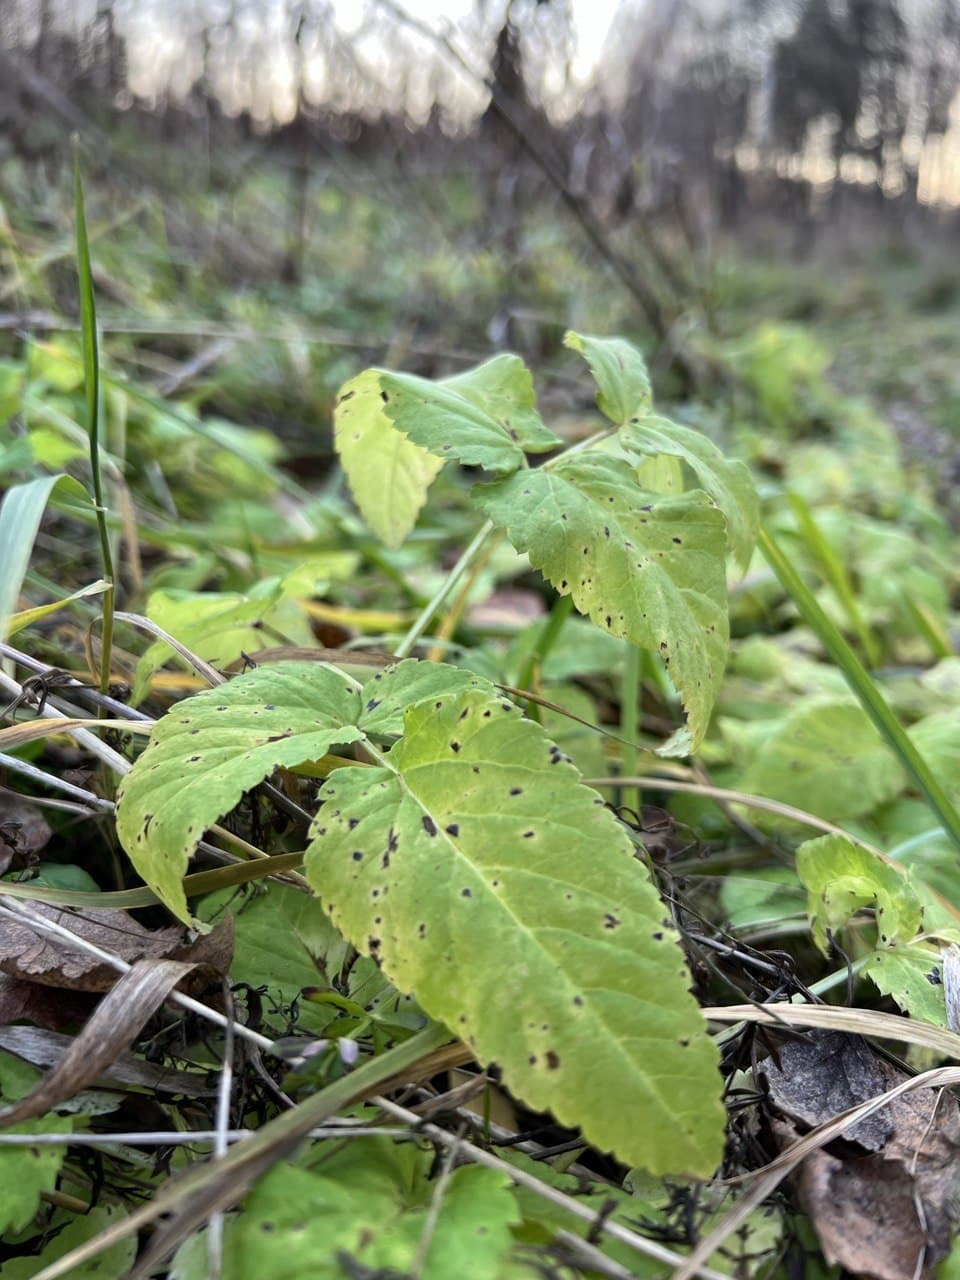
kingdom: Plantae
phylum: Tracheophyta
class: Magnoliopsida
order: Apiales
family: Apiaceae
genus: Aegopodium
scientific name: Aegopodium podagraria
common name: Ground-elder
